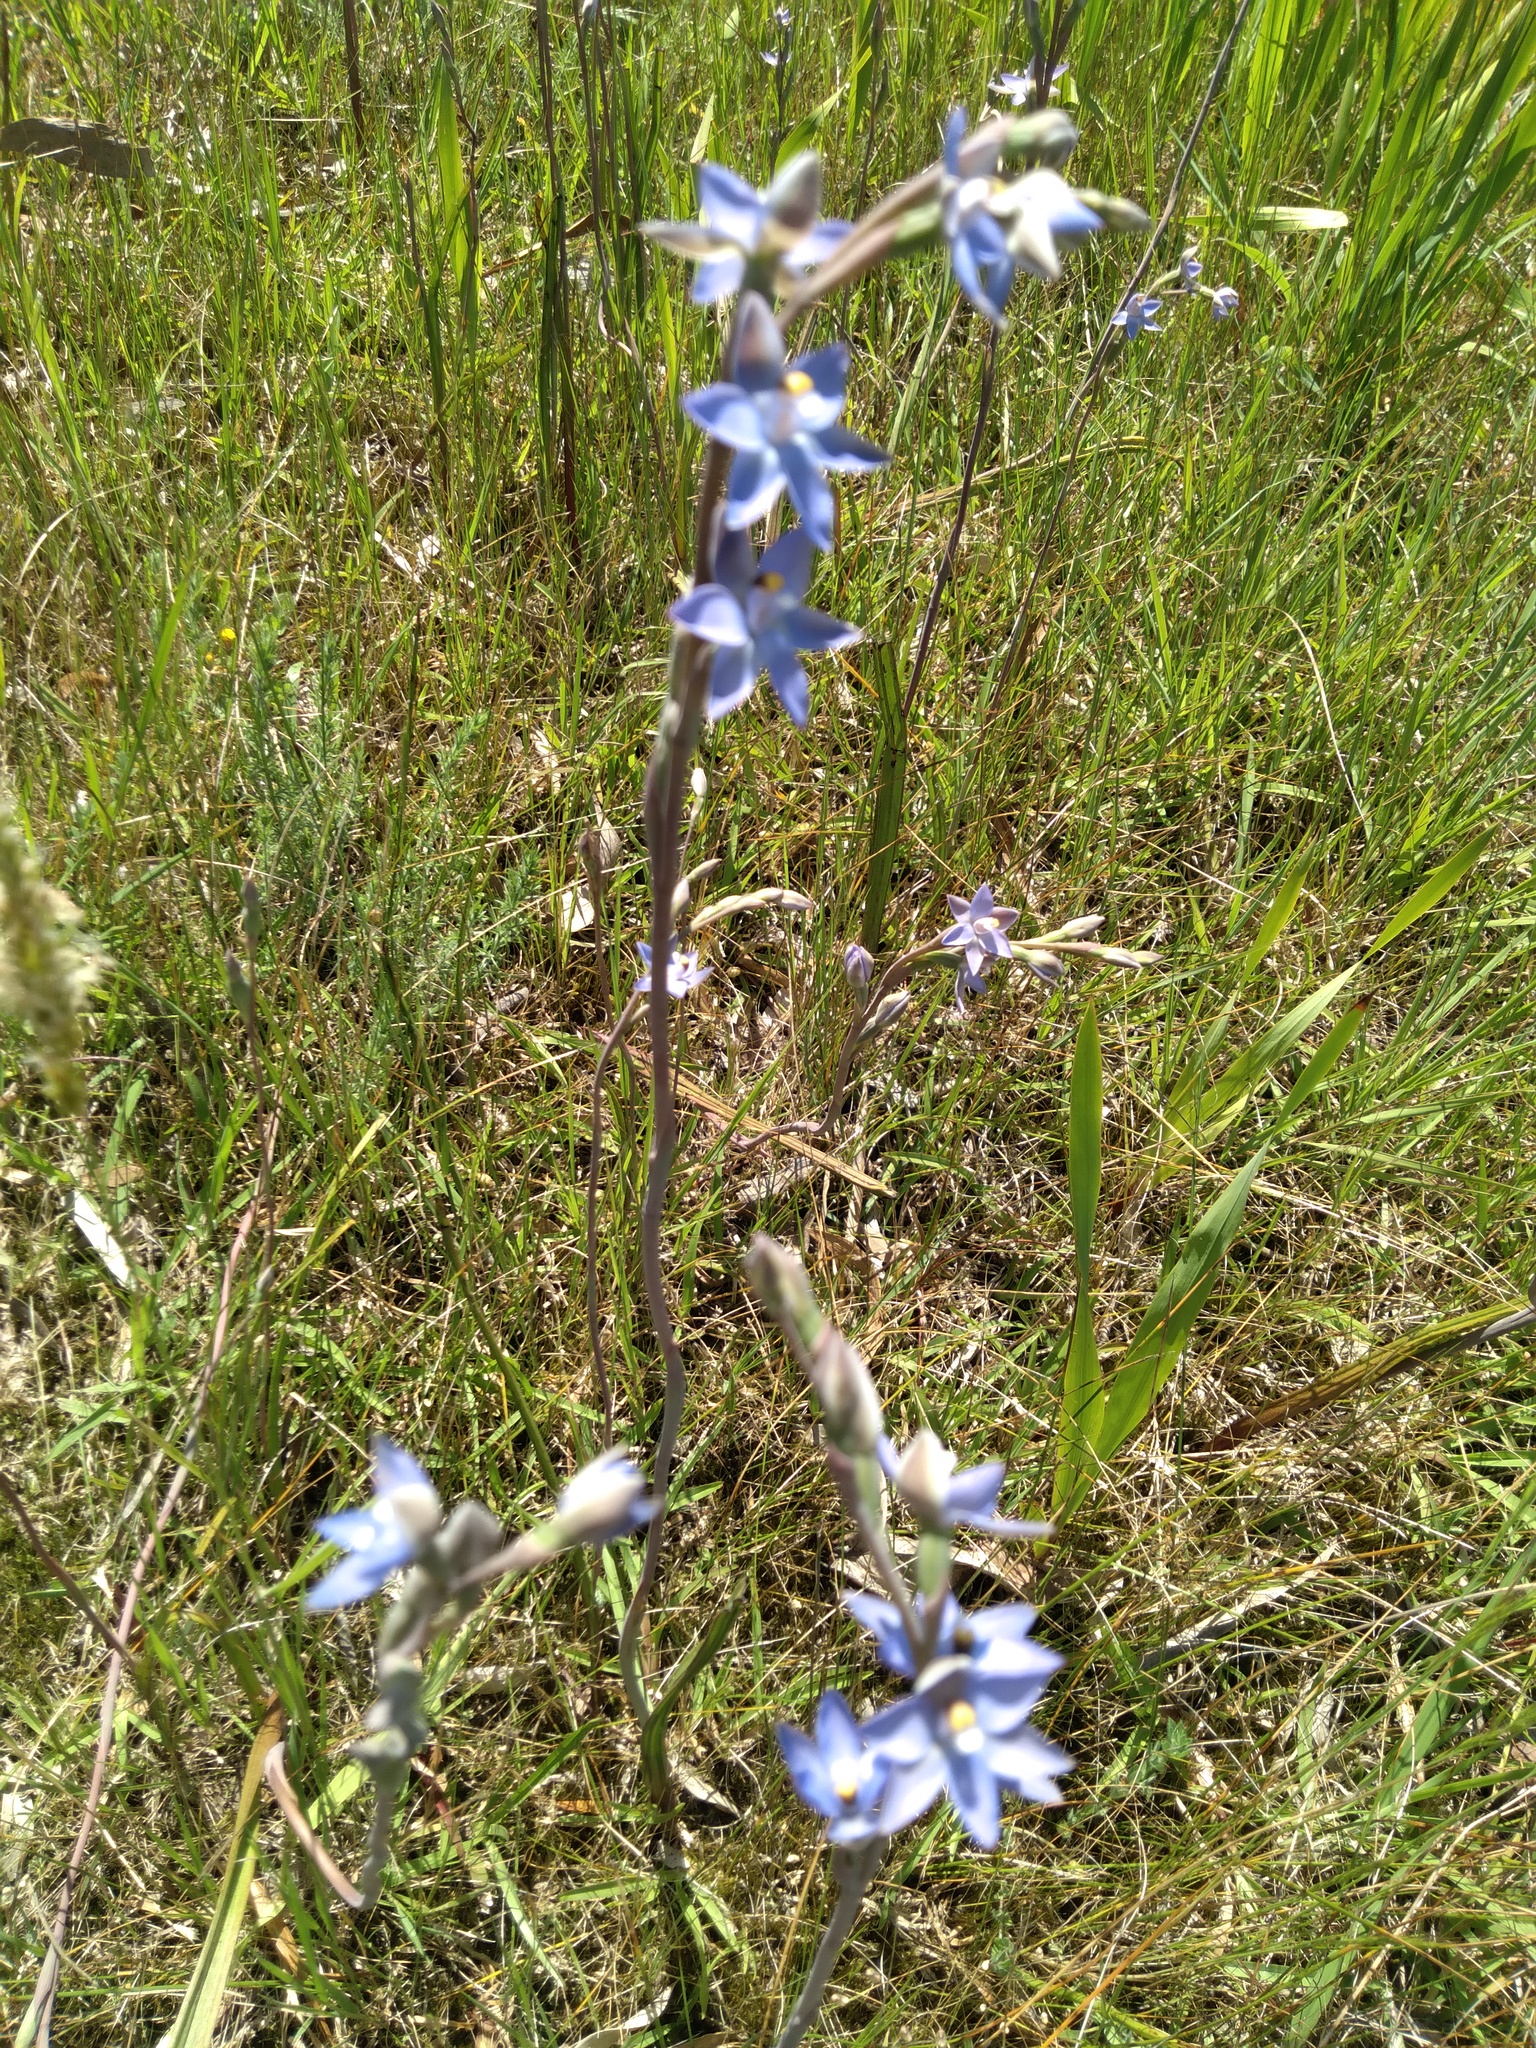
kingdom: Plantae
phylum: Tracheophyta
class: Liliopsida
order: Asparagales
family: Orchidaceae
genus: Thelymitra
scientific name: Thelymitra pauciflora
